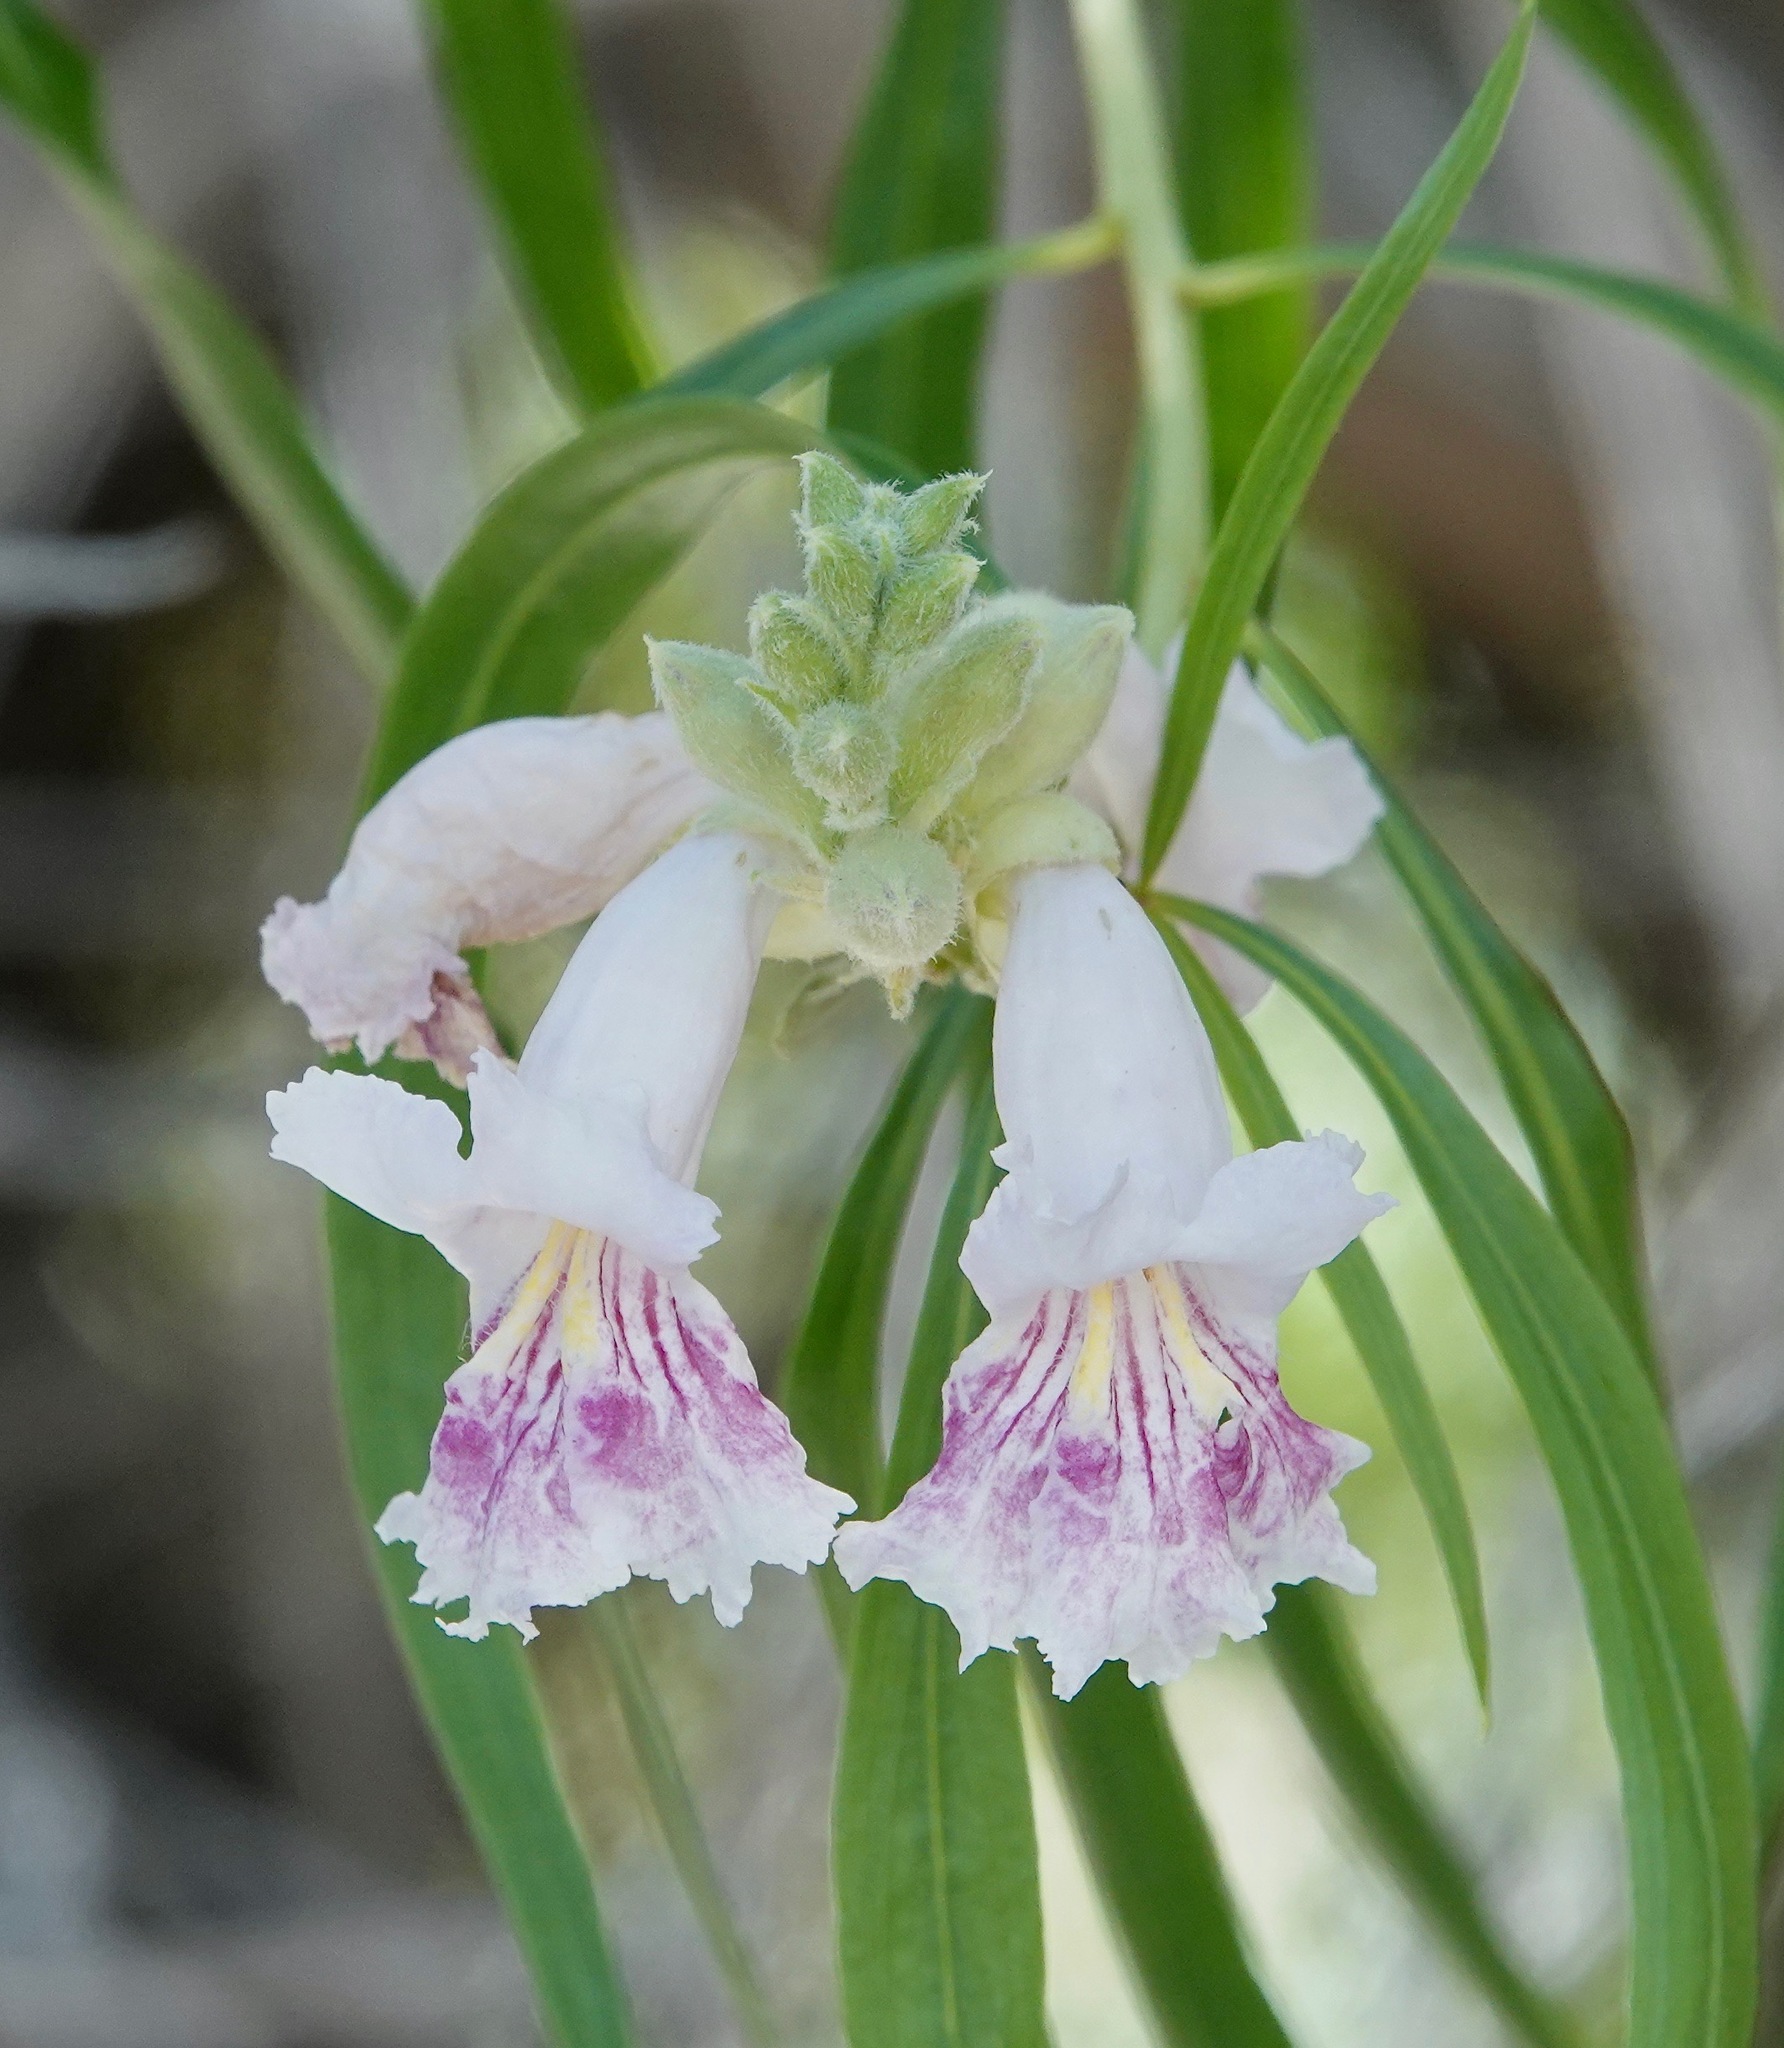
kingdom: Plantae
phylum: Tracheophyta
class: Magnoliopsida
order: Lamiales
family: Bignoniaceae
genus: Chilopsis
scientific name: Chilopsis linearis
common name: Desert-willow
